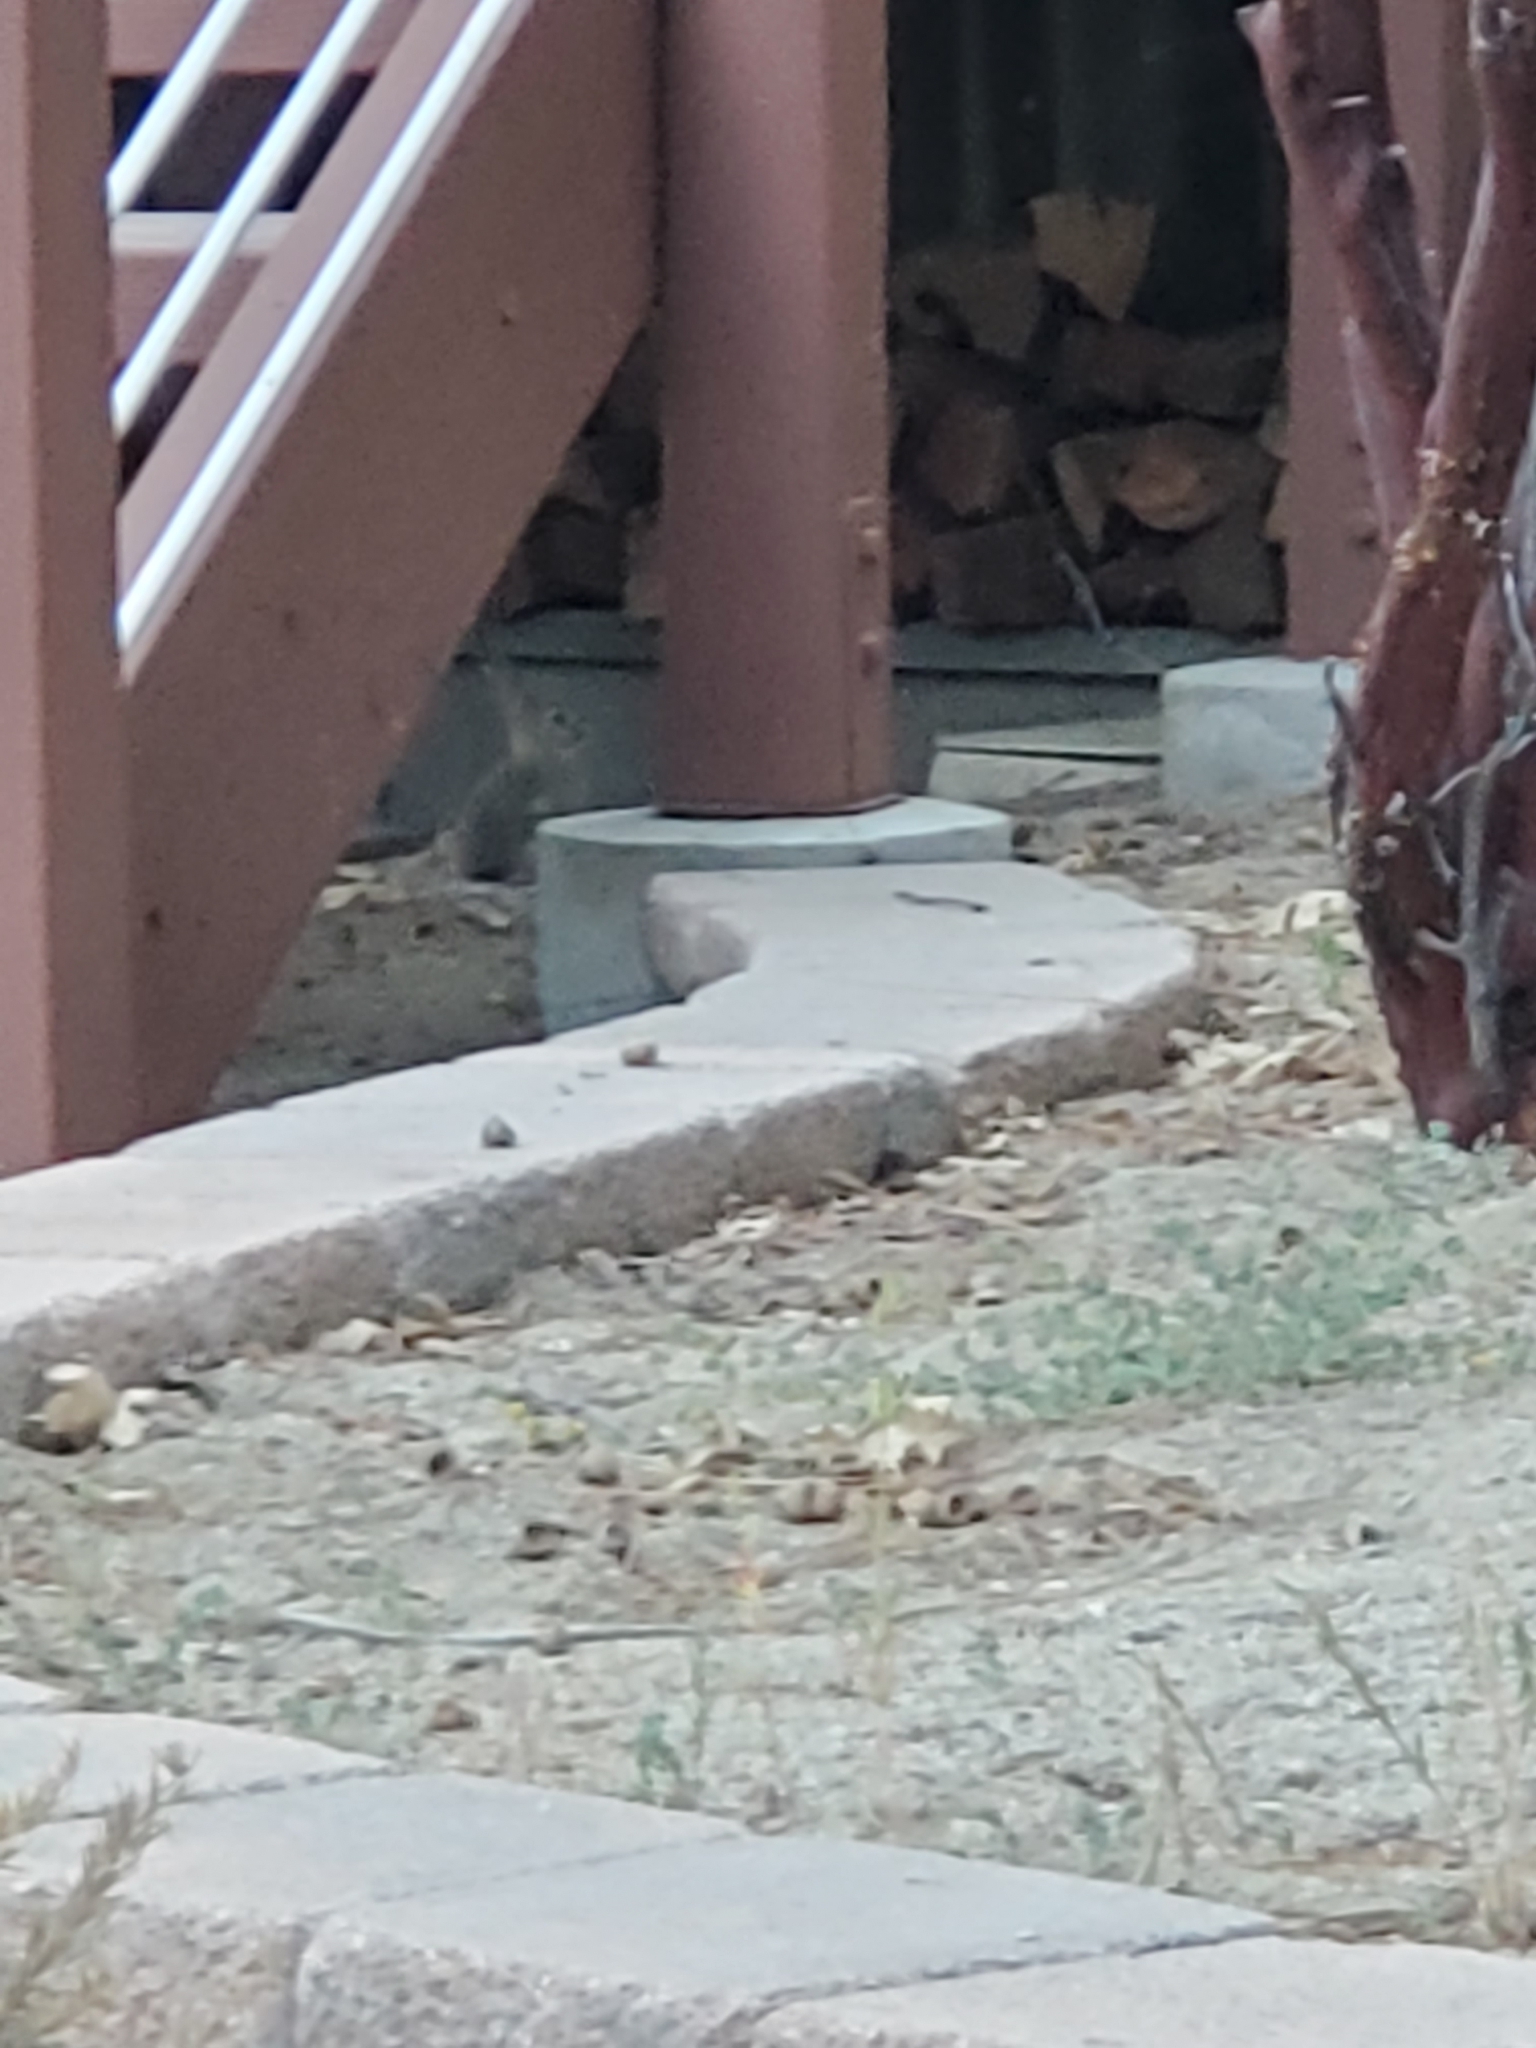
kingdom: Animalia
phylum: Chordata
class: Mammalia
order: Lagomorpha
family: Leporidae
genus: Sylvilagus
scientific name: Sylvilagus audubonii
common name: Desert cottontail
